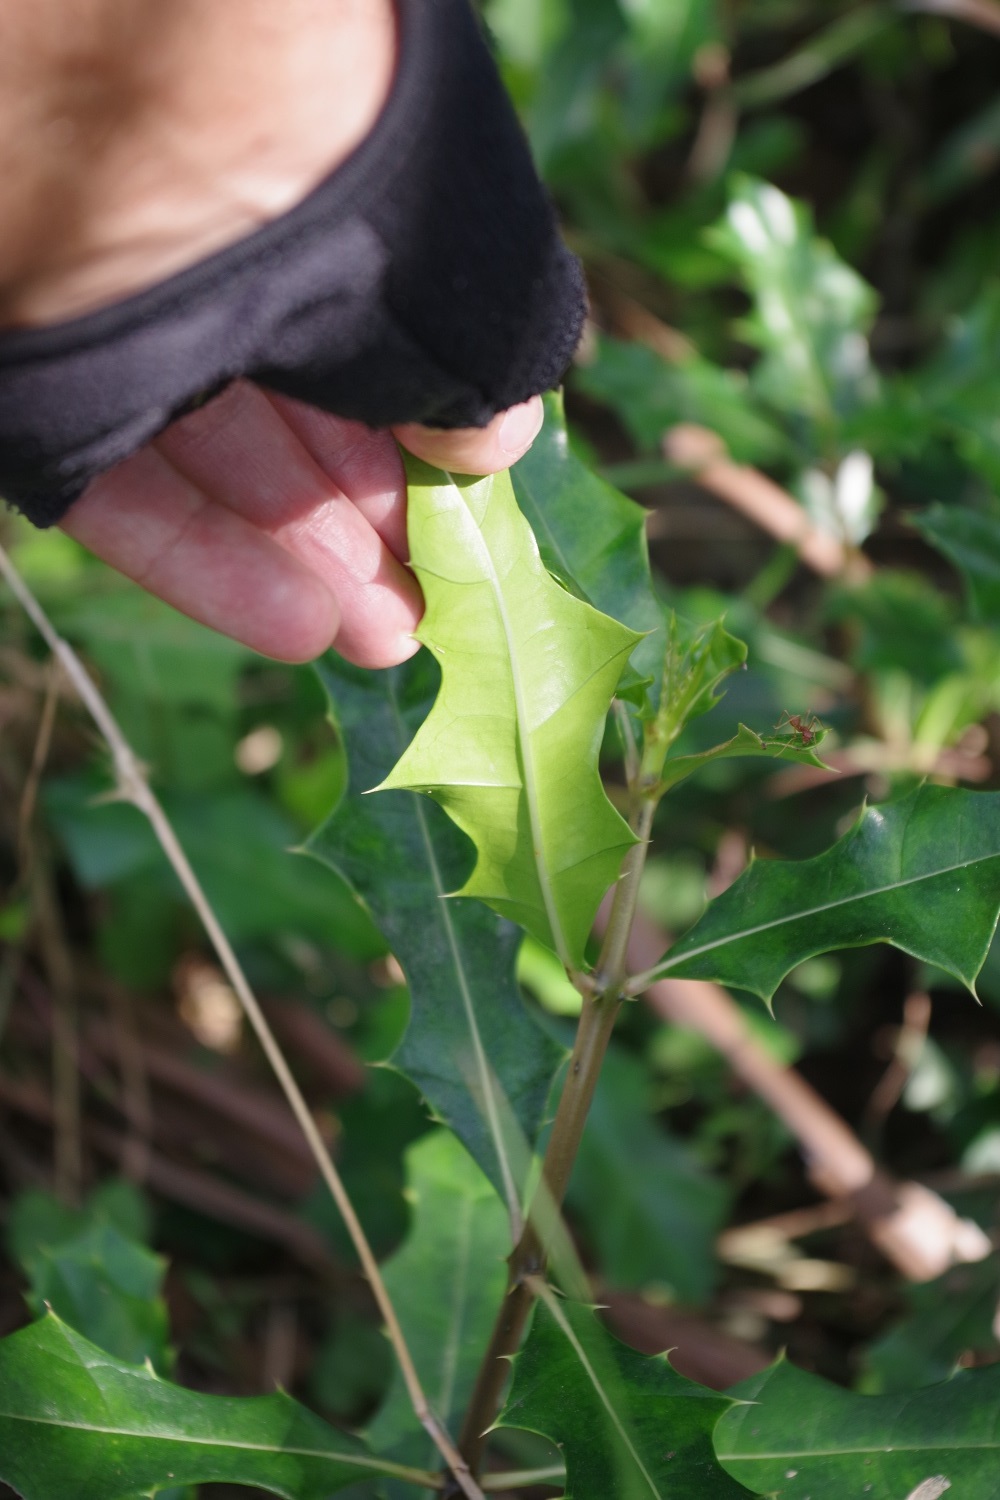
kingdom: Plantae
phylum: Tracheophyta
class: Magnoliopsida
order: Lamiales
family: Acanthaceae
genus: Acanthus
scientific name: Acanthus ilicifolius
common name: Holy mangrove
